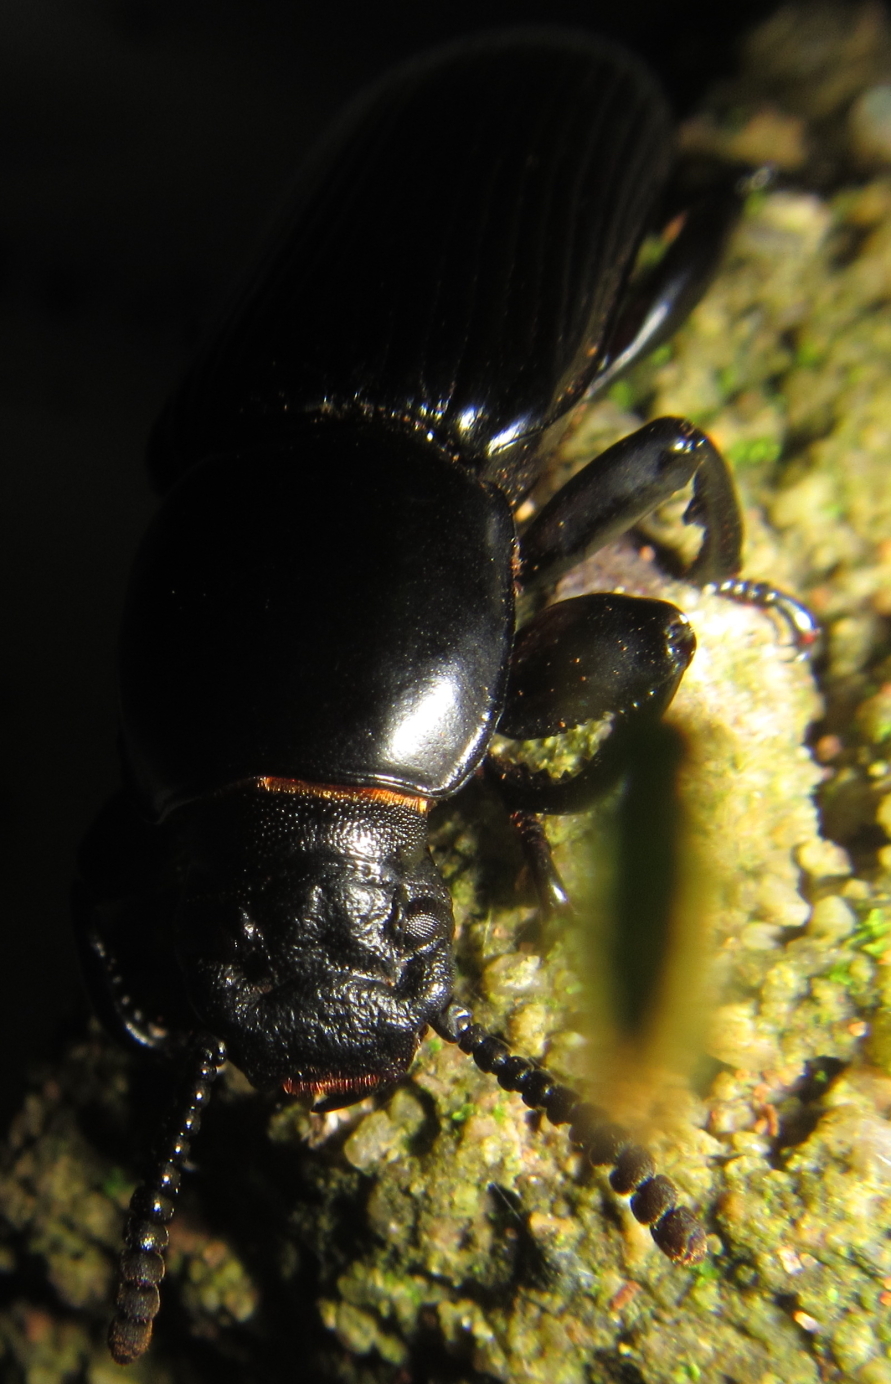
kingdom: Animalia
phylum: Arthropoda
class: Insecta
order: Coleoptera
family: Tenebrionidae
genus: Prioscelis
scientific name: Prioscelis
